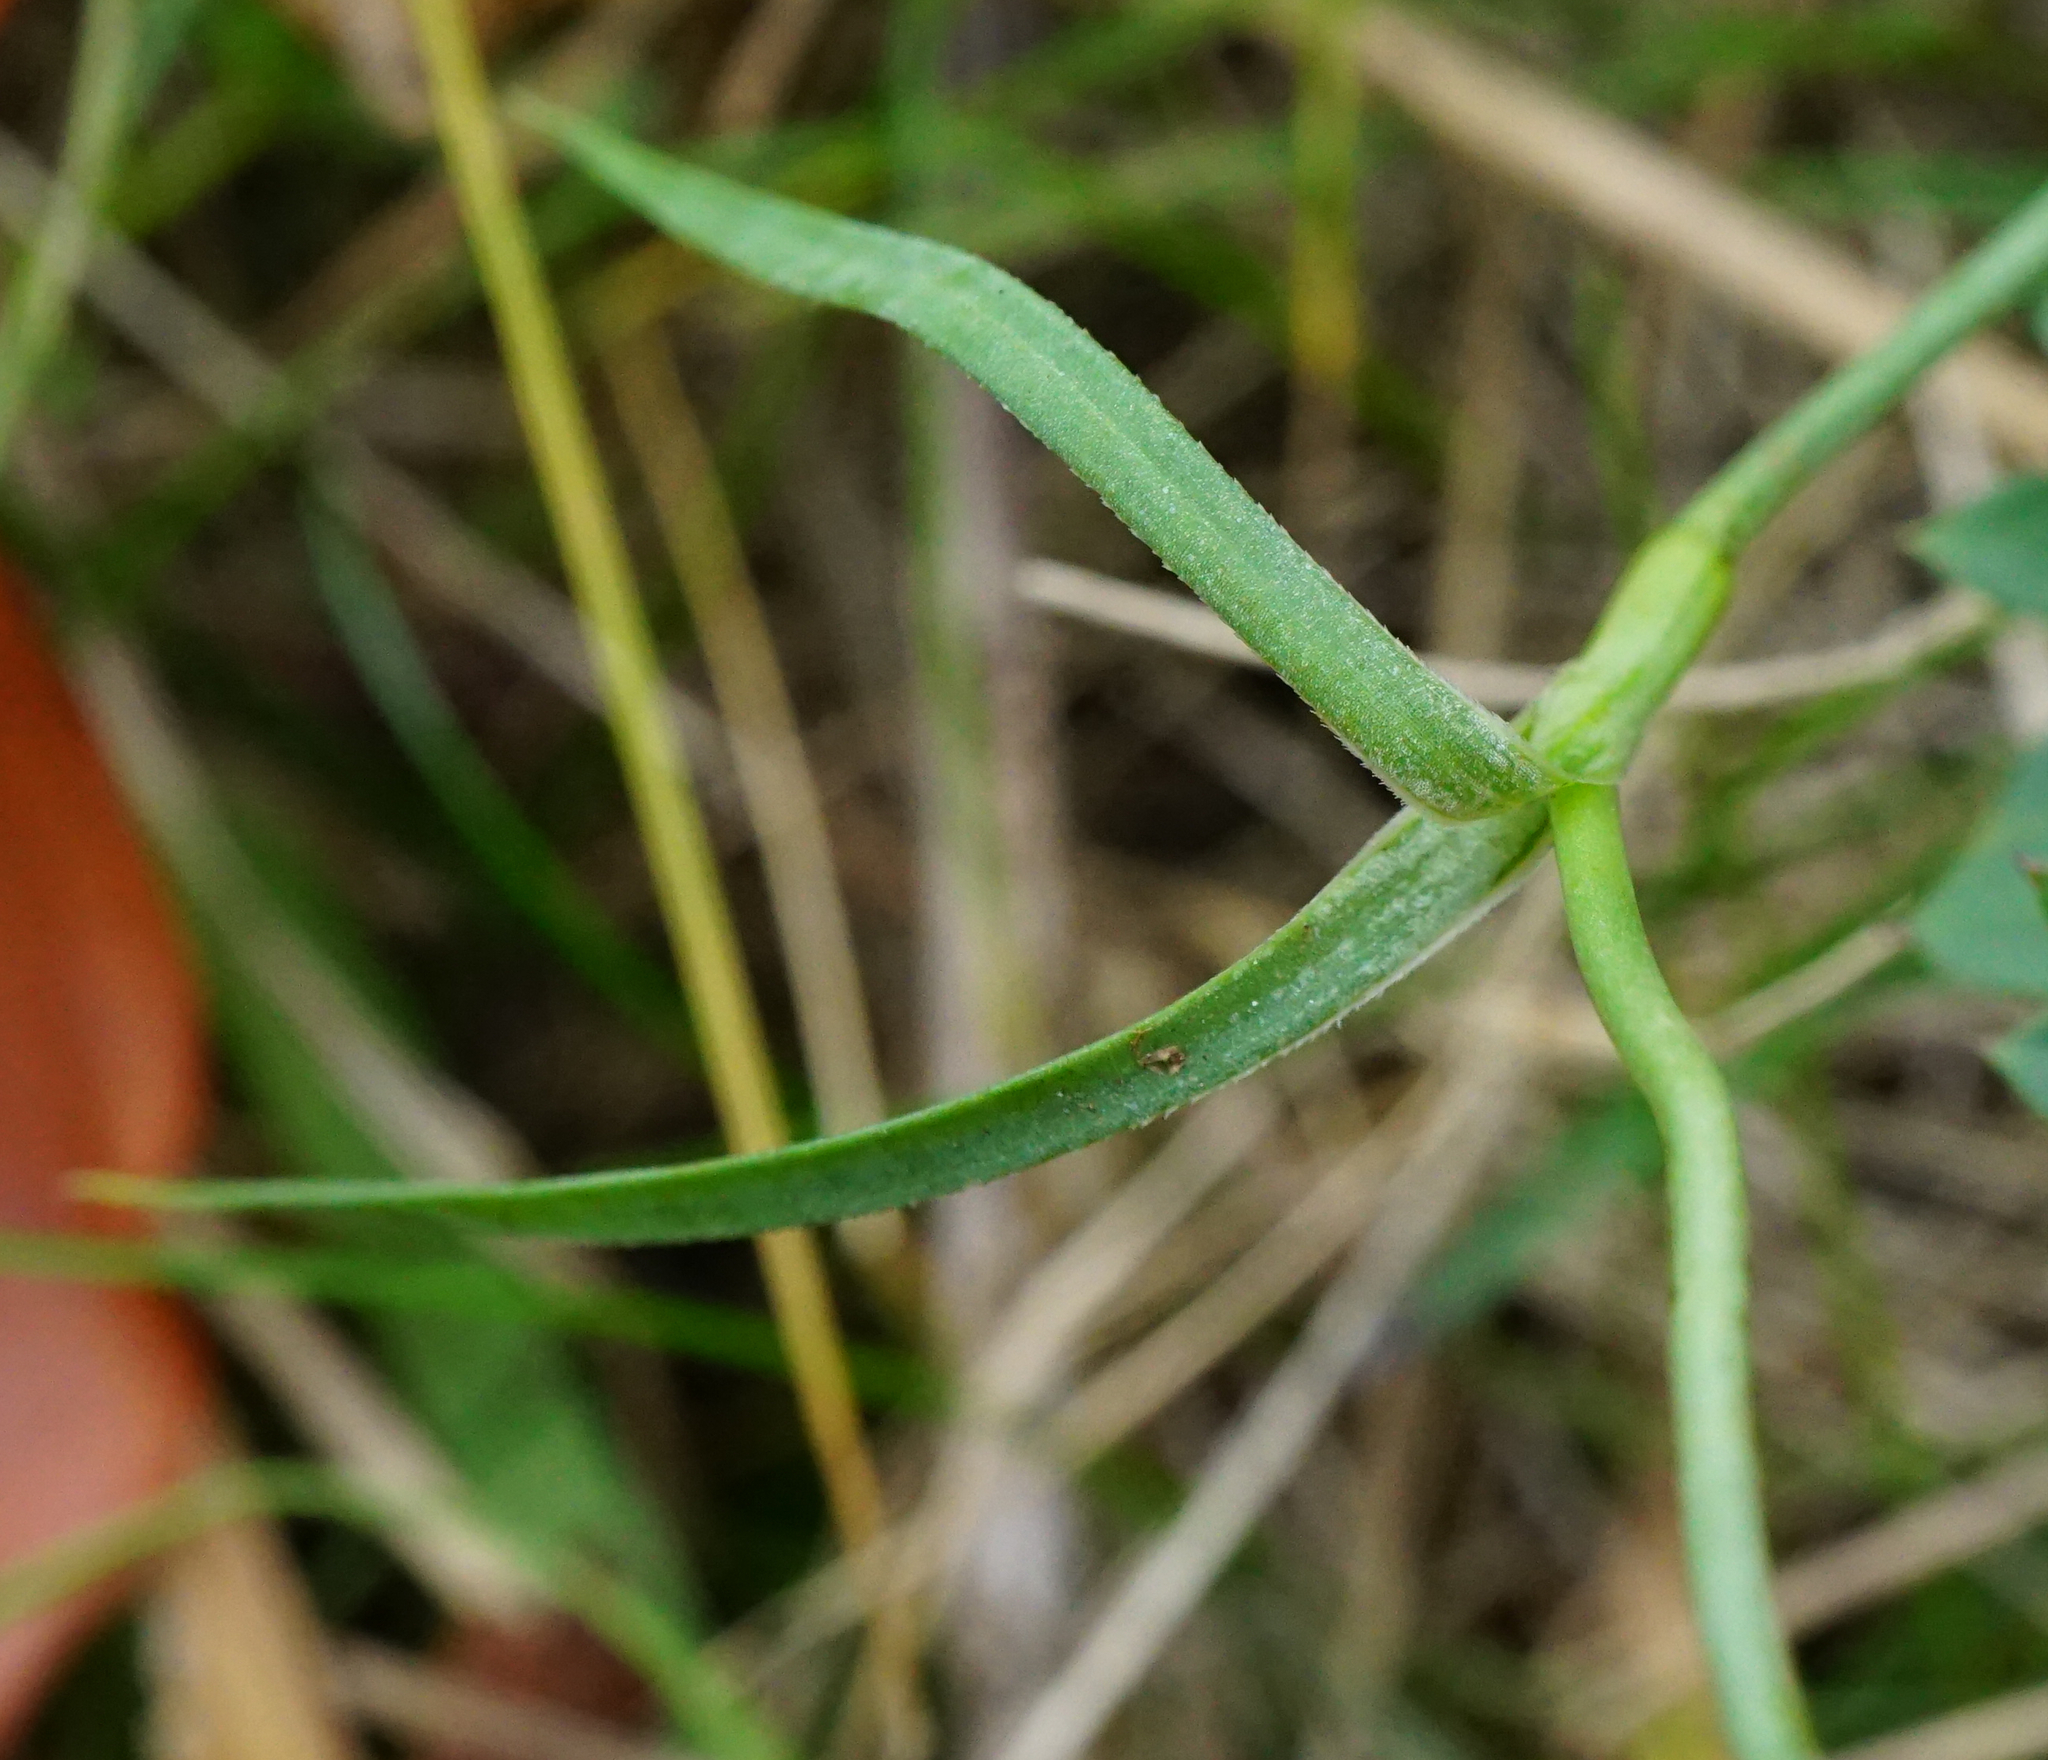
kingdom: Plantae
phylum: Tracheophyta
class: Magnoliopsida
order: Caryophyllales
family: Caryophyllaceae
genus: Dianthus
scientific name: Dianthus carthusianorum
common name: Carthusian pink
